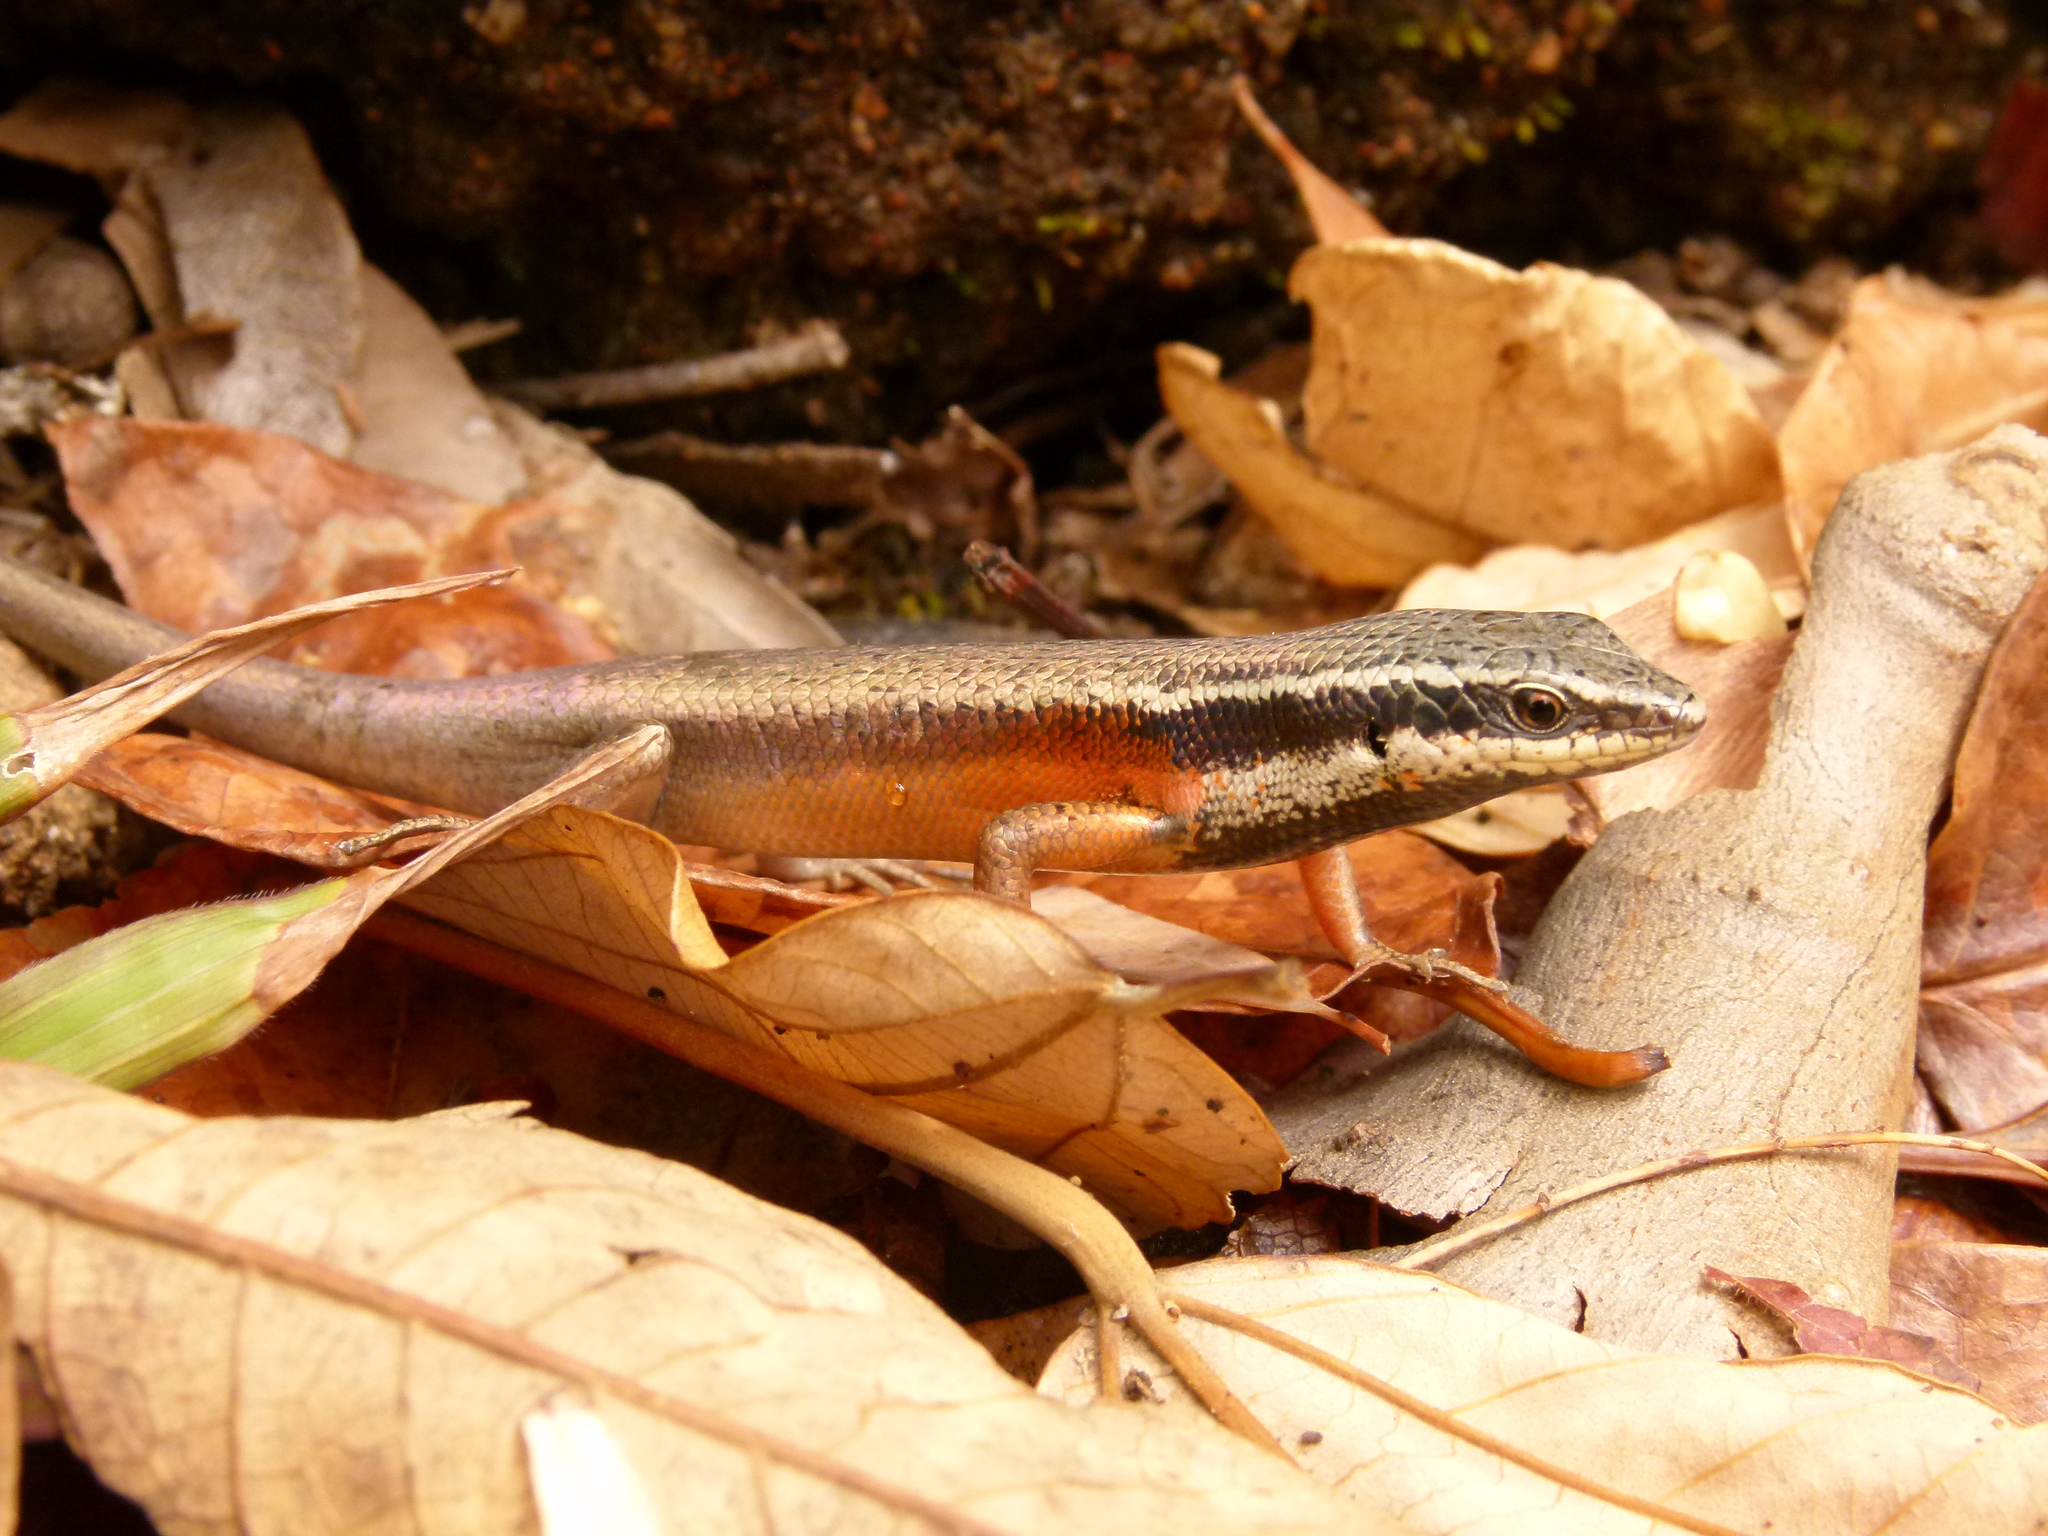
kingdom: Animalia
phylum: Chordata
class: Squamata
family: Scincidae
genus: Carlia
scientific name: Carlia rostralis
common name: Black-throated rainbow-skink
